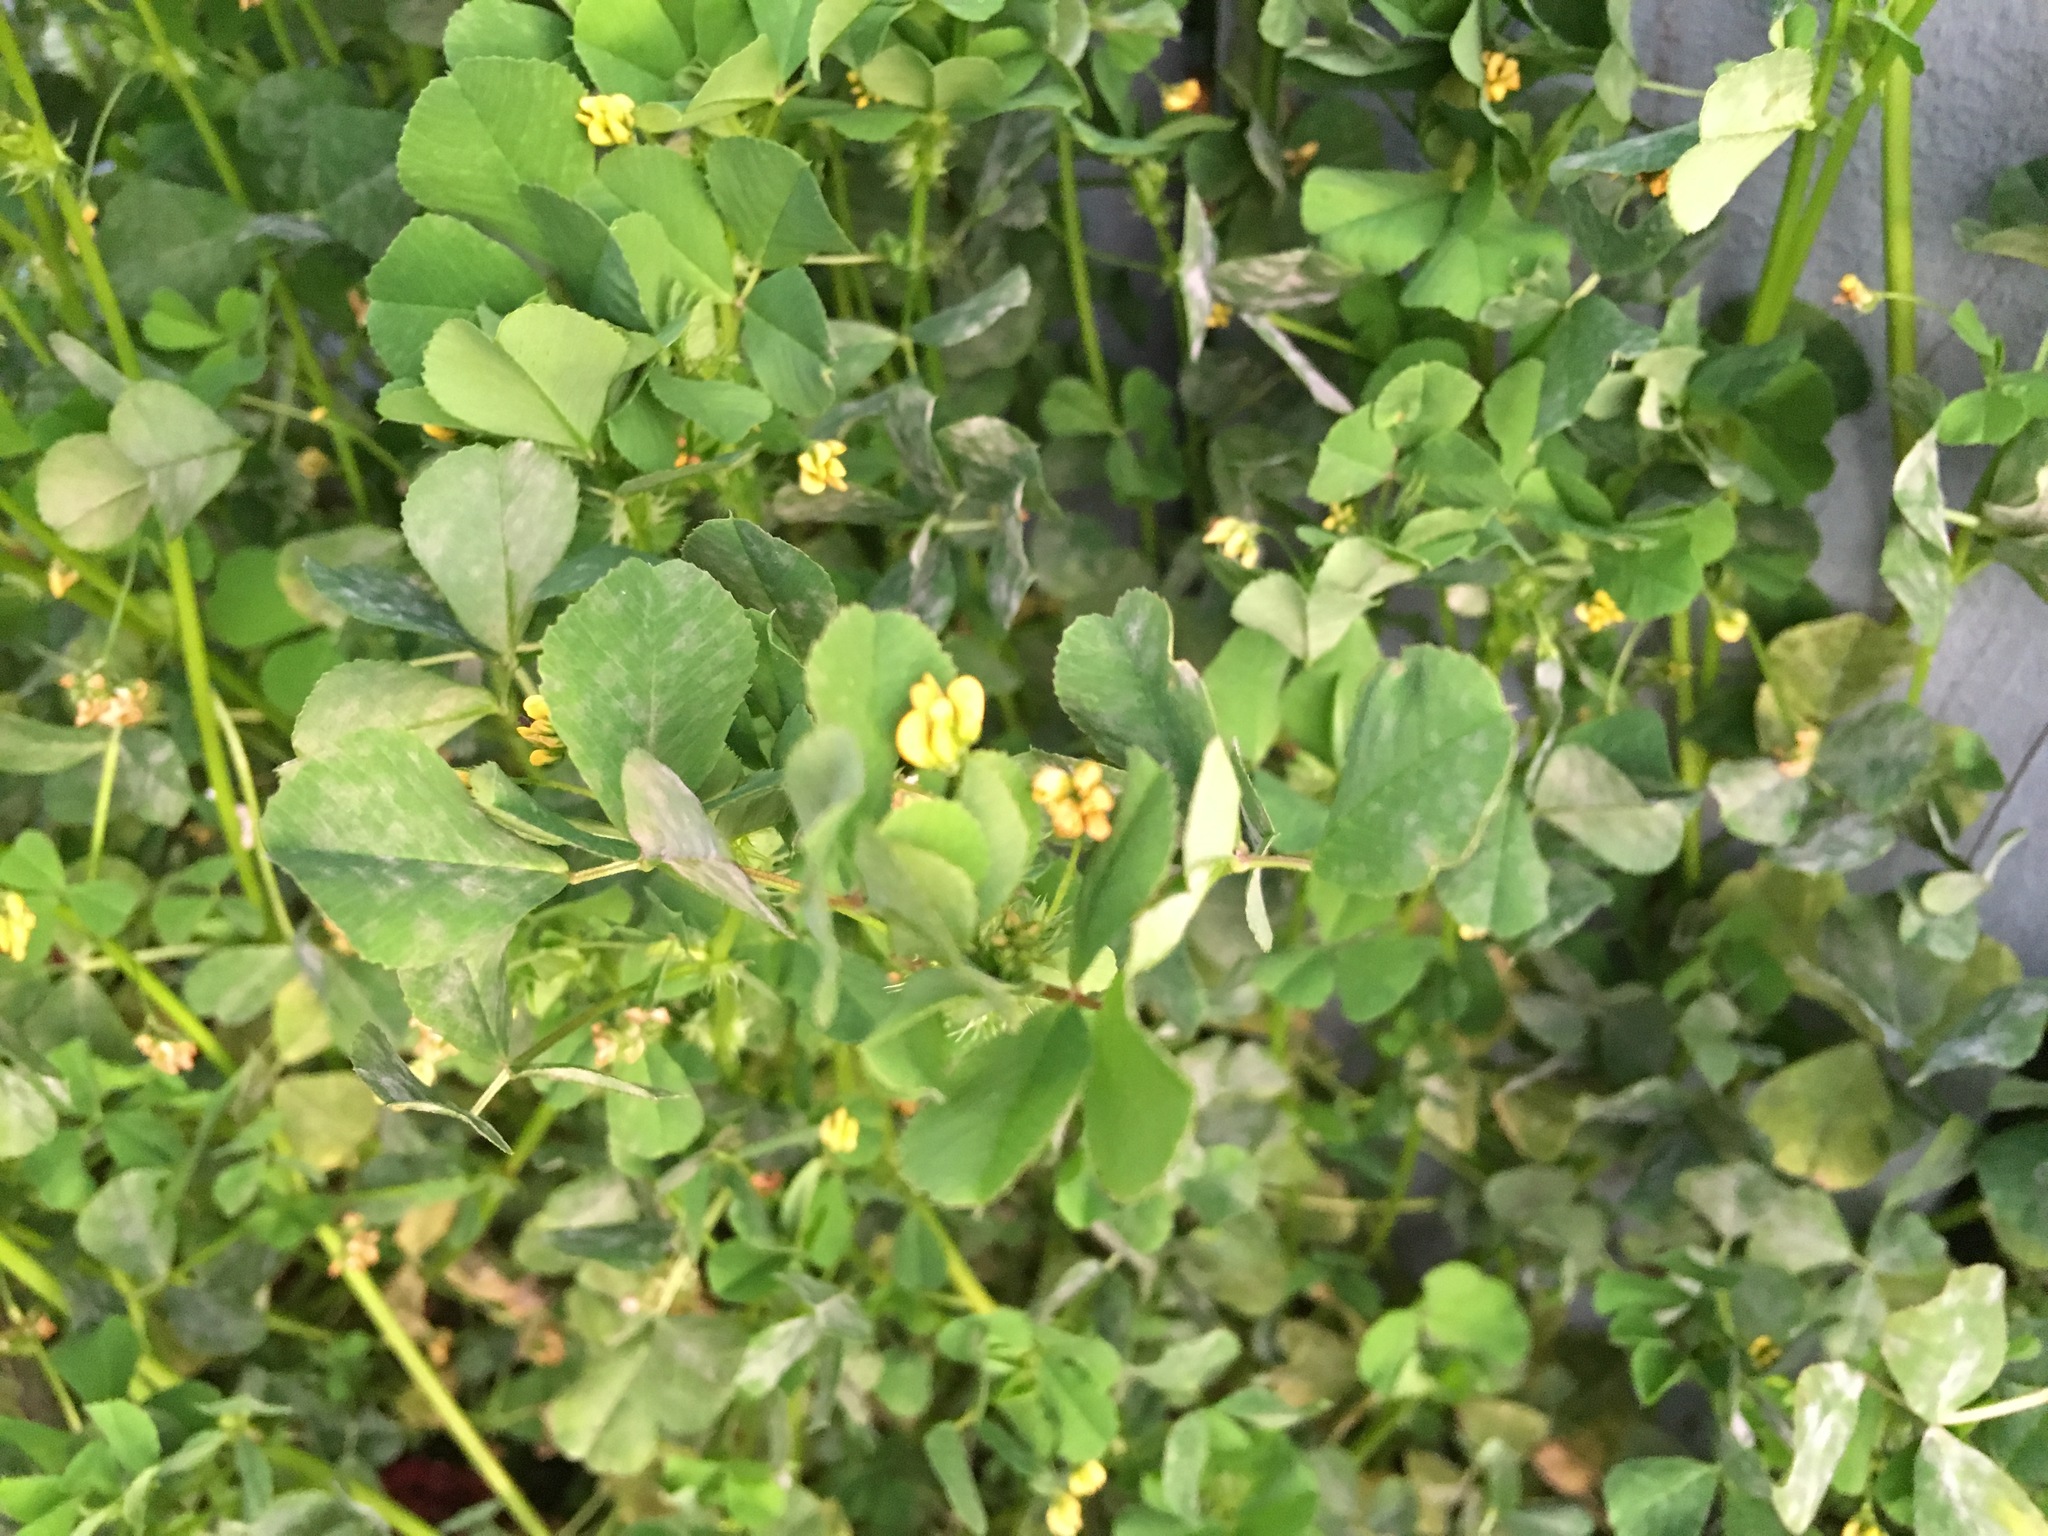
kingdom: Plantae
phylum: Tracheophyta
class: Magnoliopsida
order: Fabales
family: Fabaceae
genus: Medicago
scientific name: Medicago lupulina
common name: Black medick
